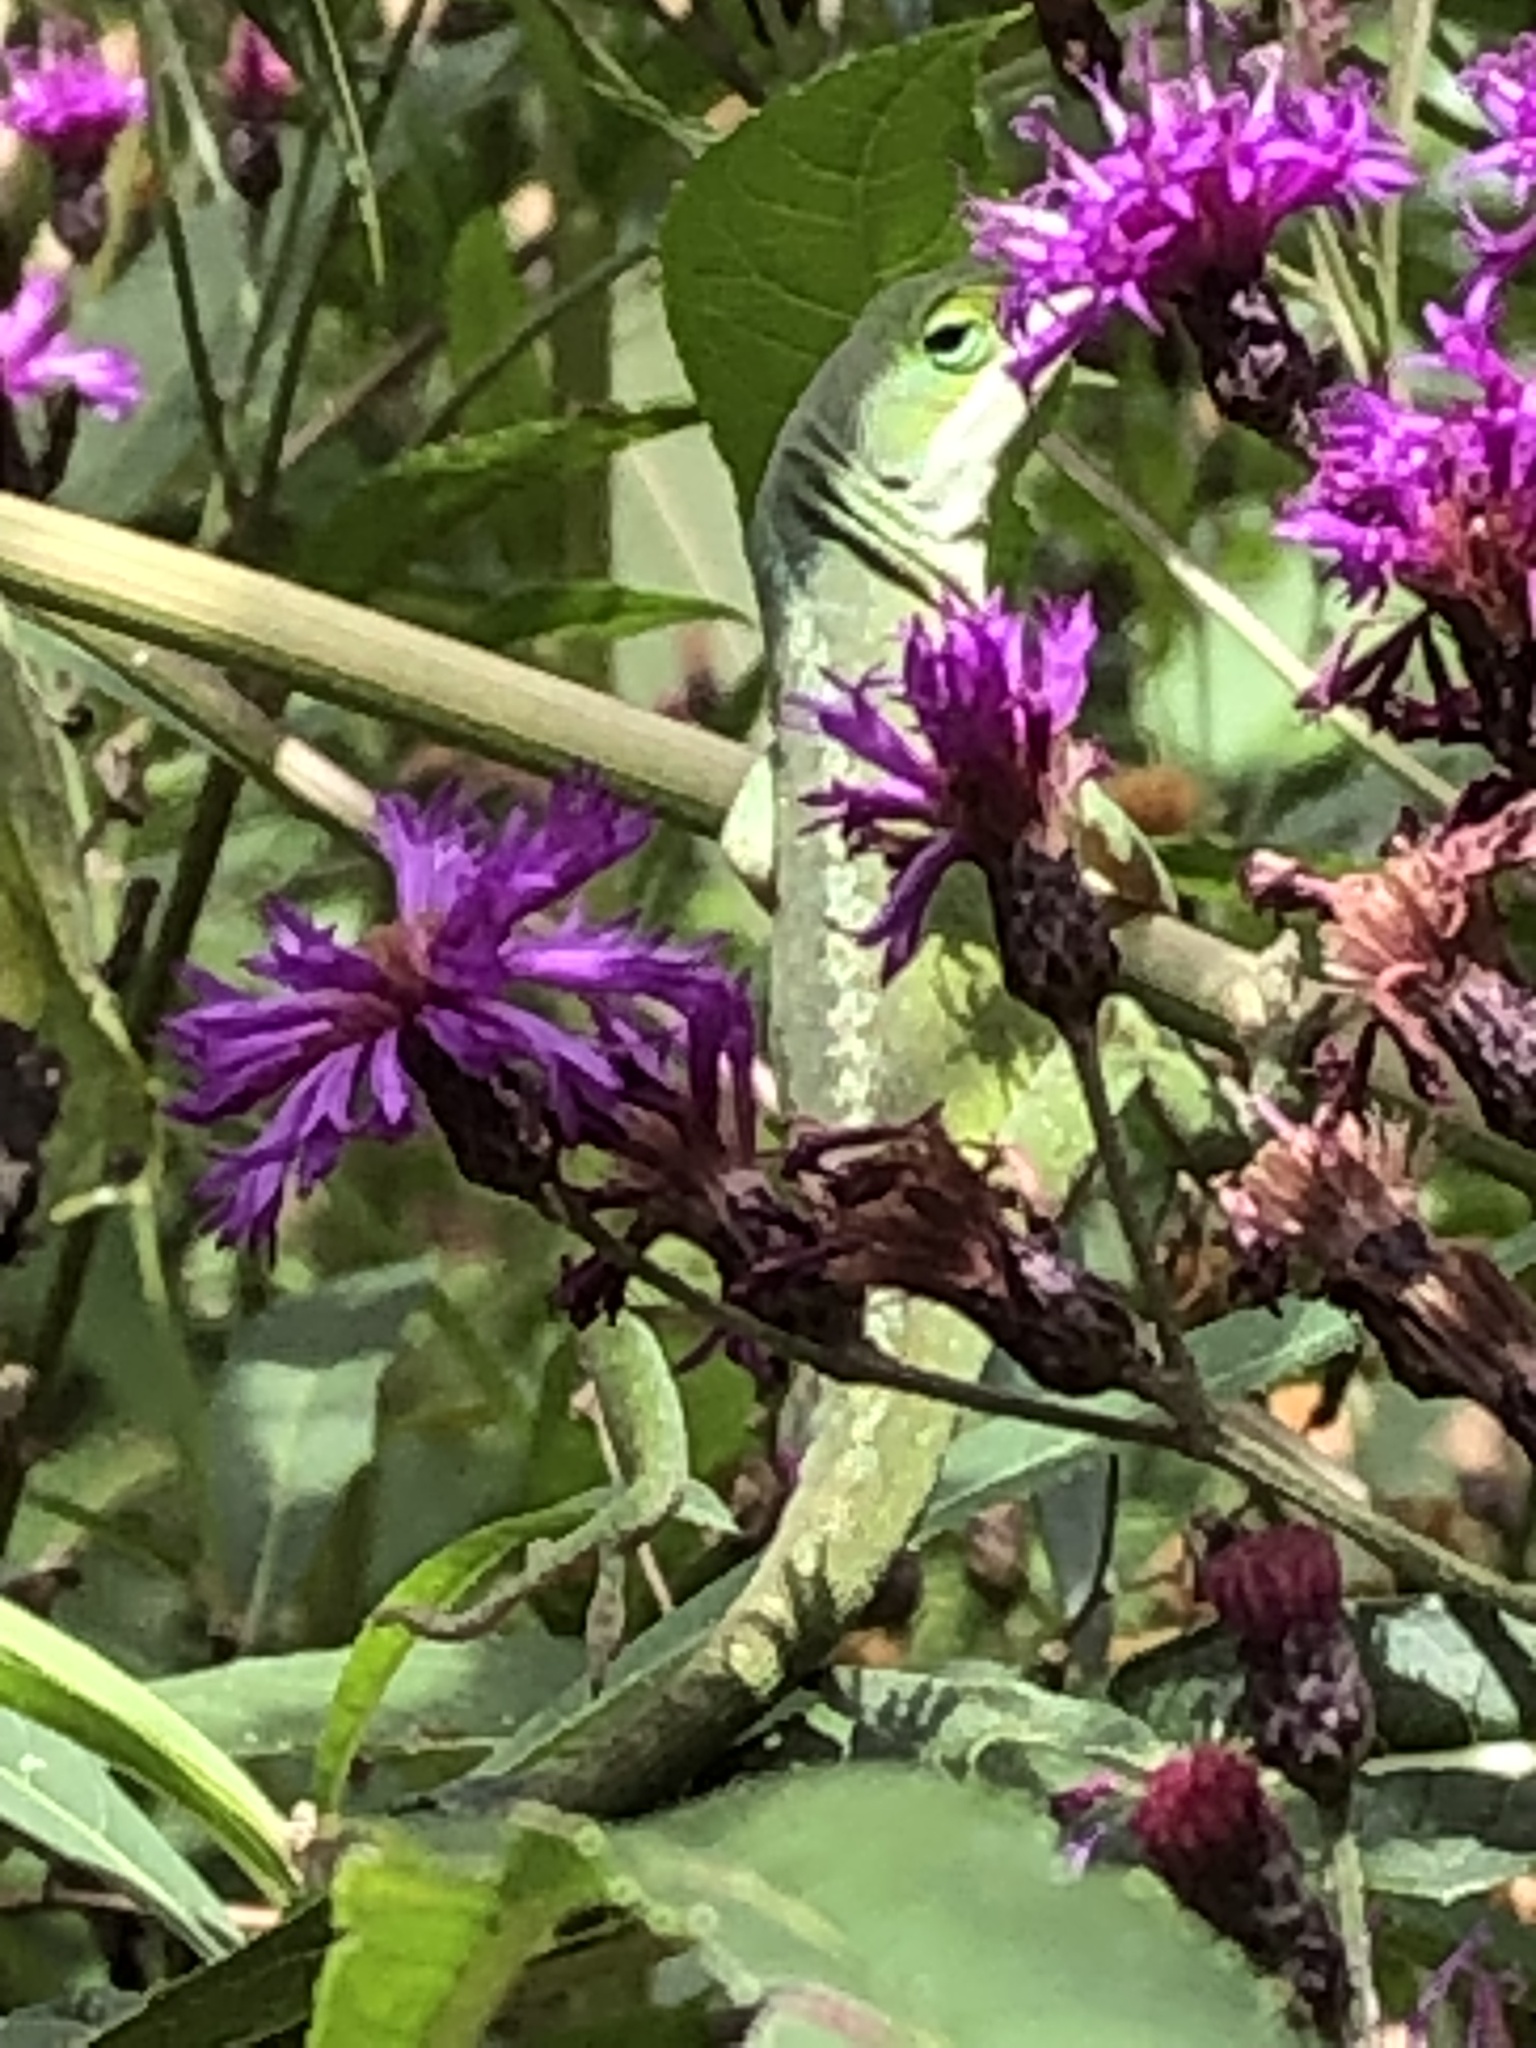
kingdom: Animalia
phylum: Chordata
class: Squamata
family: Dactyloidae
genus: Anolis
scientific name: Anolis carolinensis
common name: Green anole
